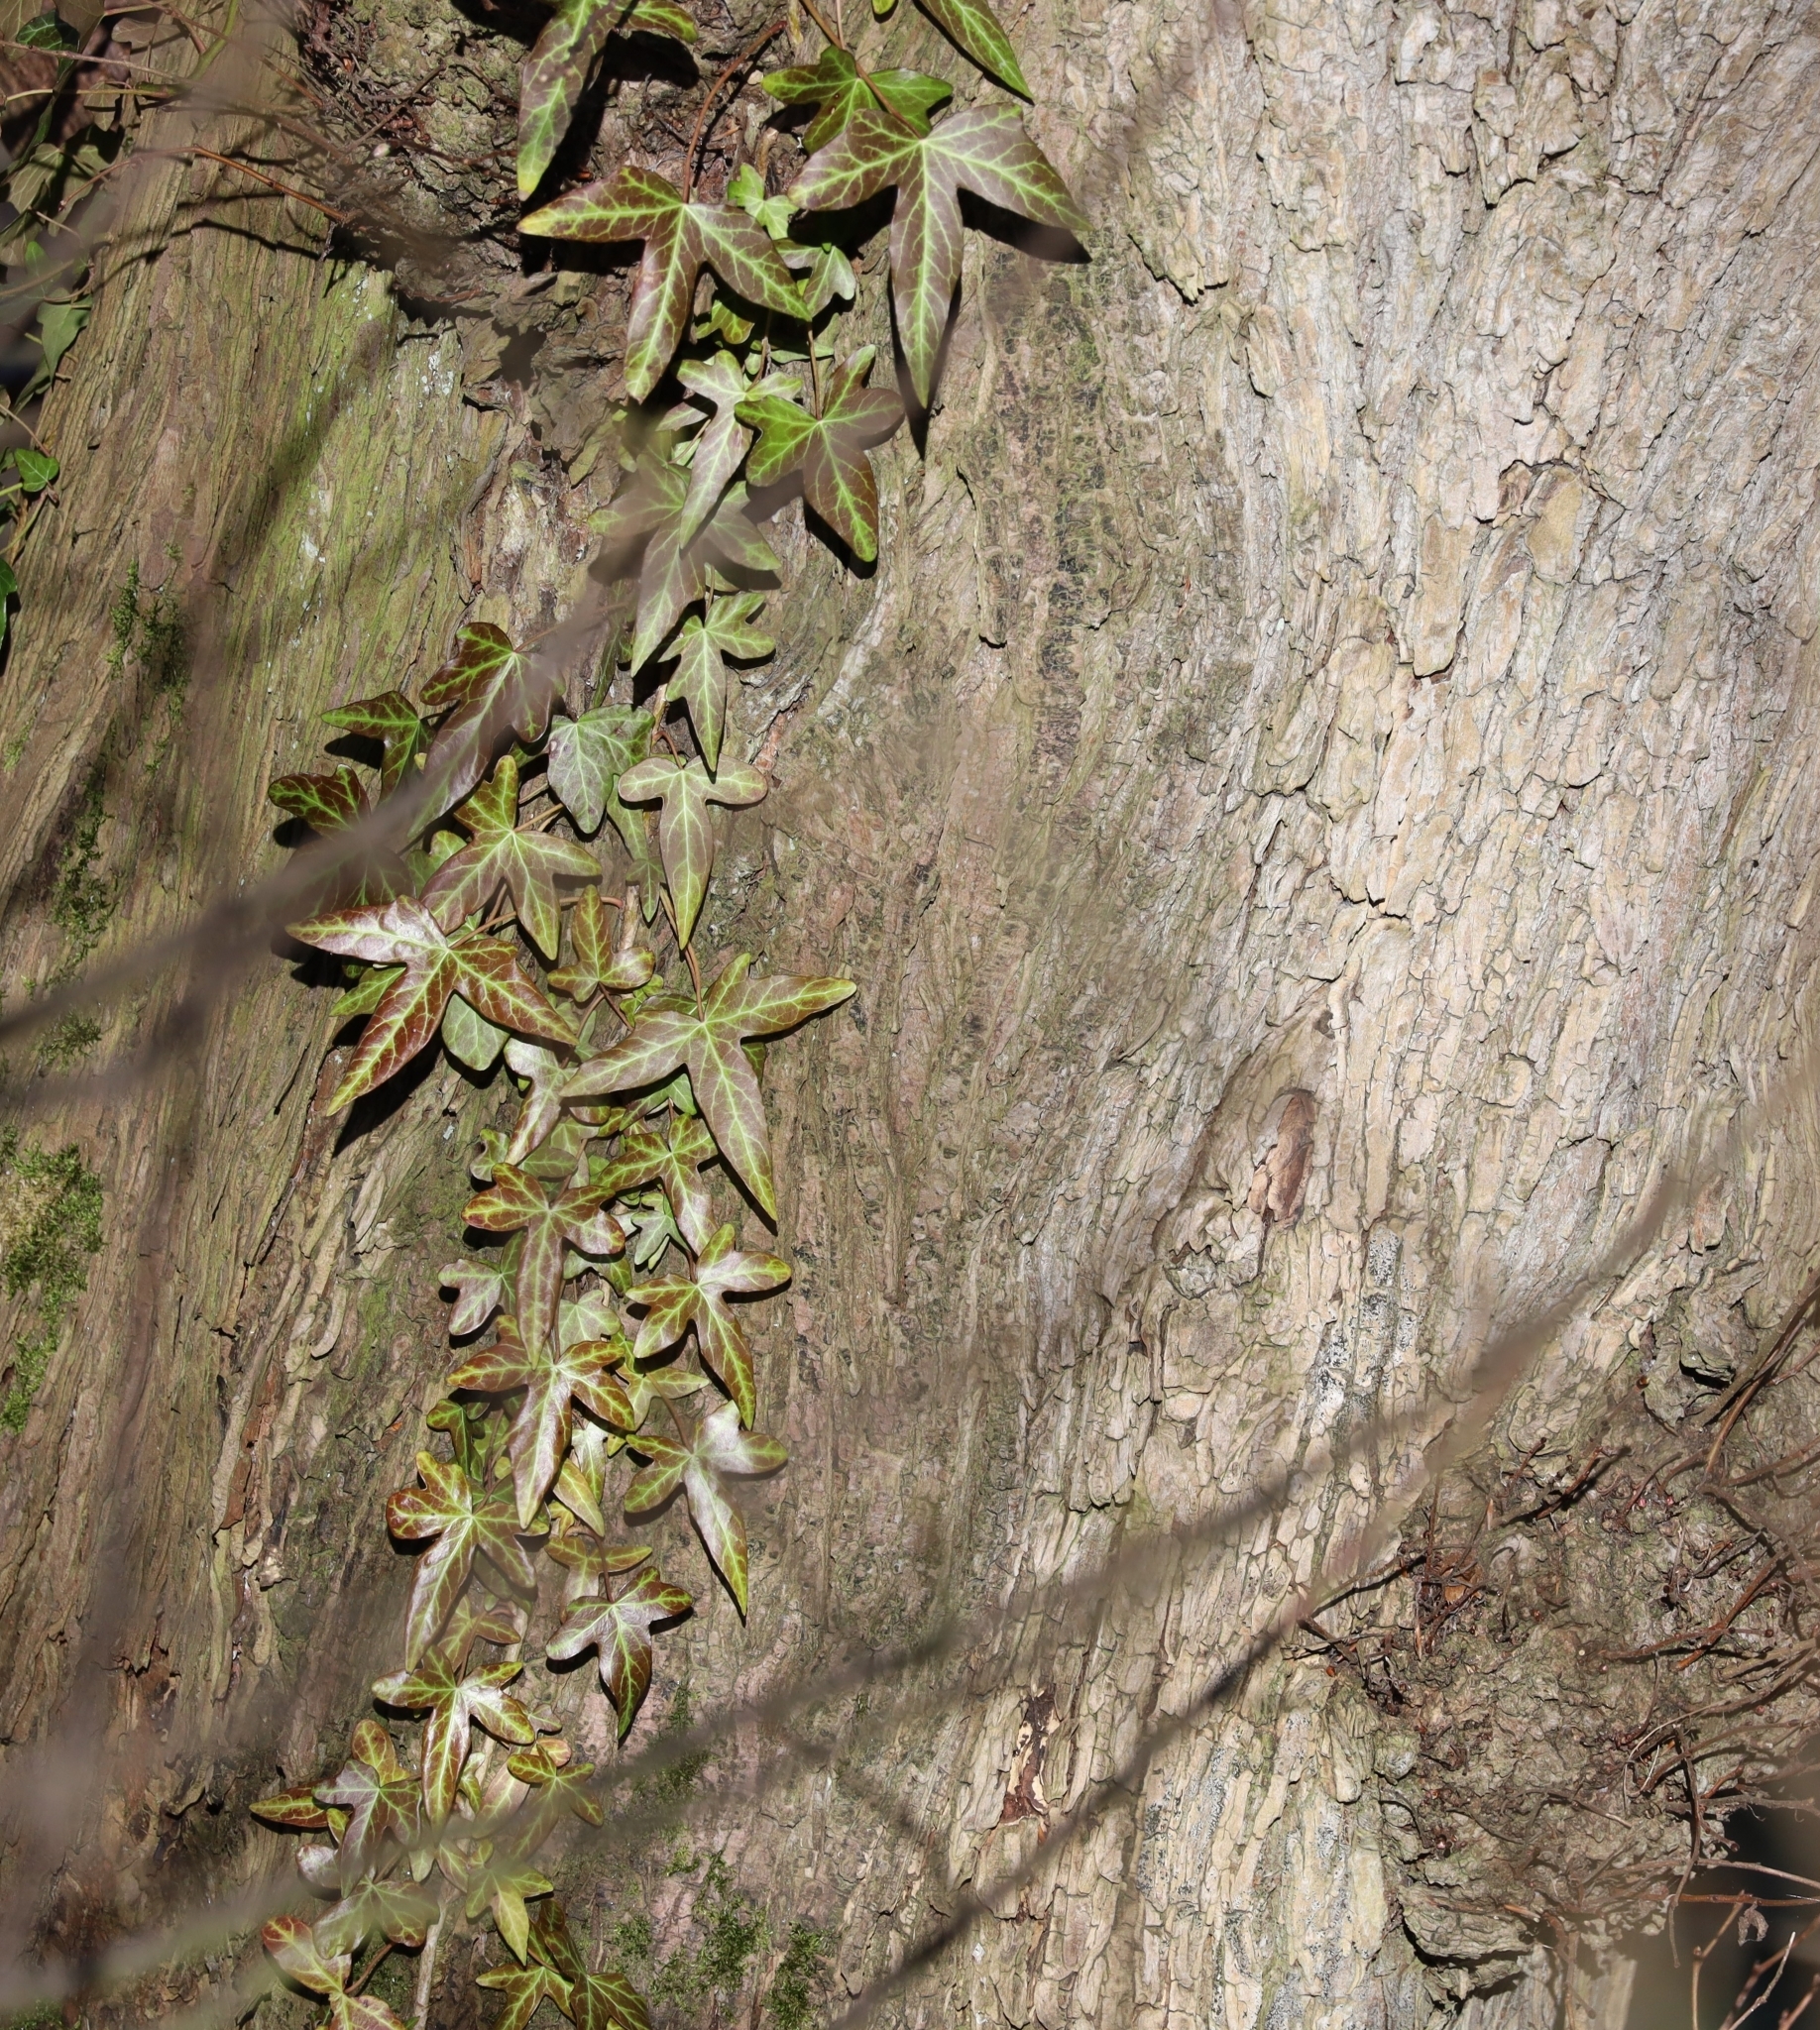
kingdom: Plantae
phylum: Tracheophyta
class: Magnoliopsida
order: Apiales
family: Araliaceae
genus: Hedera
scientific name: Hedera helix
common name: Ivy
